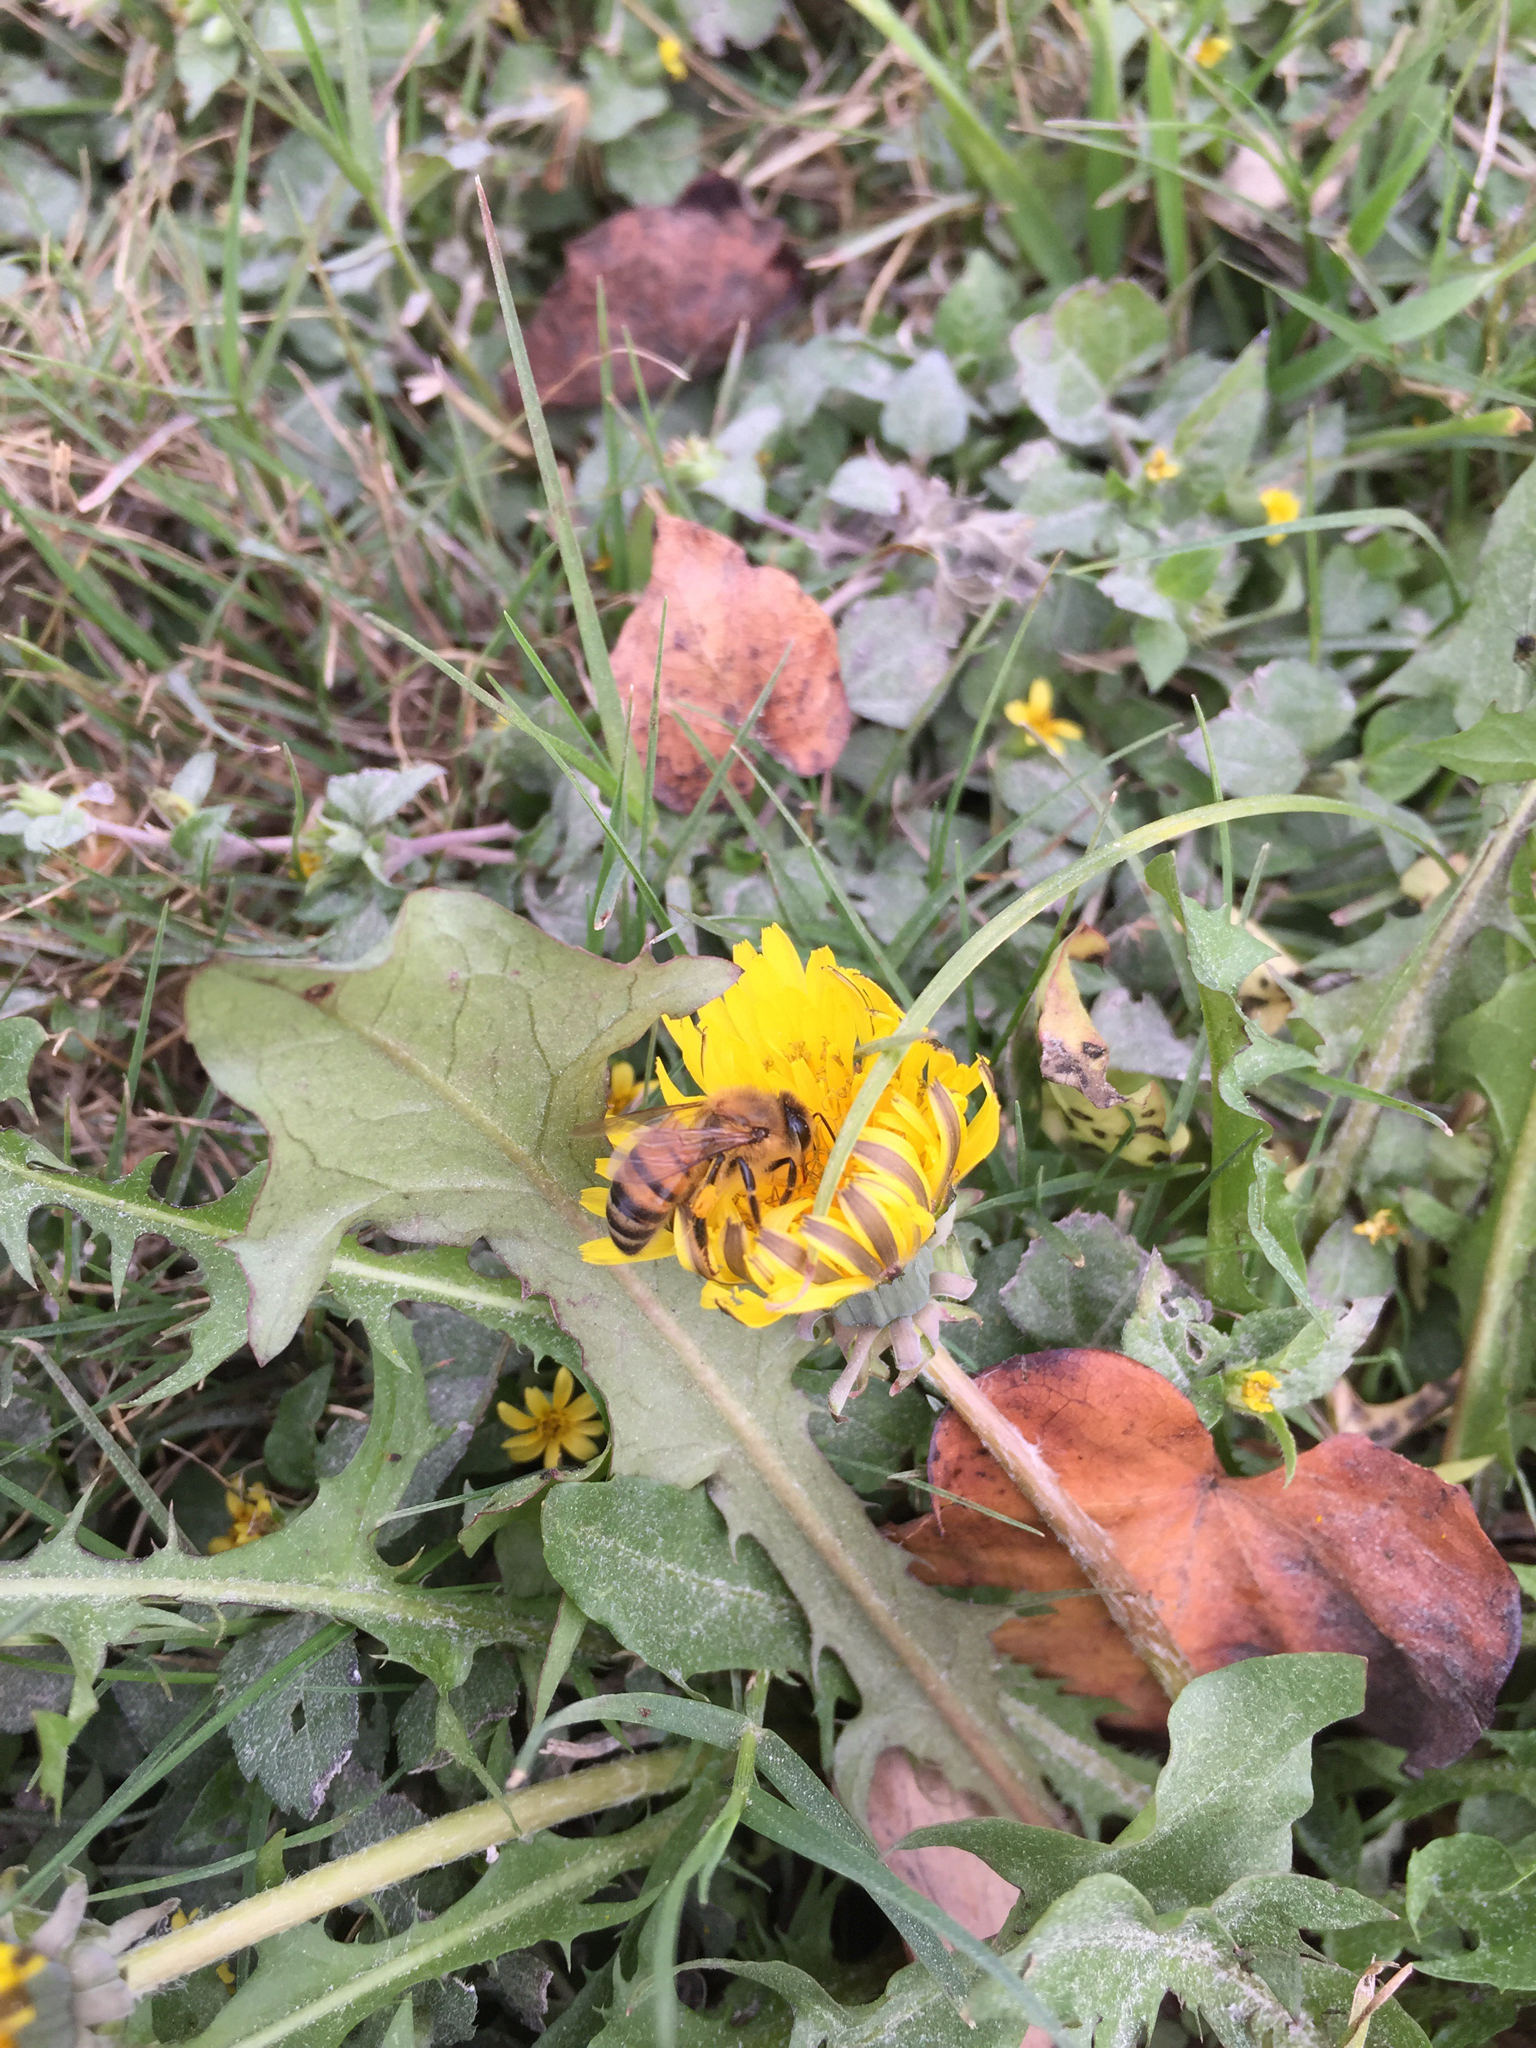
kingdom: Animalia
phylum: Arthropoda
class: Insecta
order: Hymenoptera
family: Apidae
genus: Apis
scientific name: Apis mellifera
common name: Honey bee
